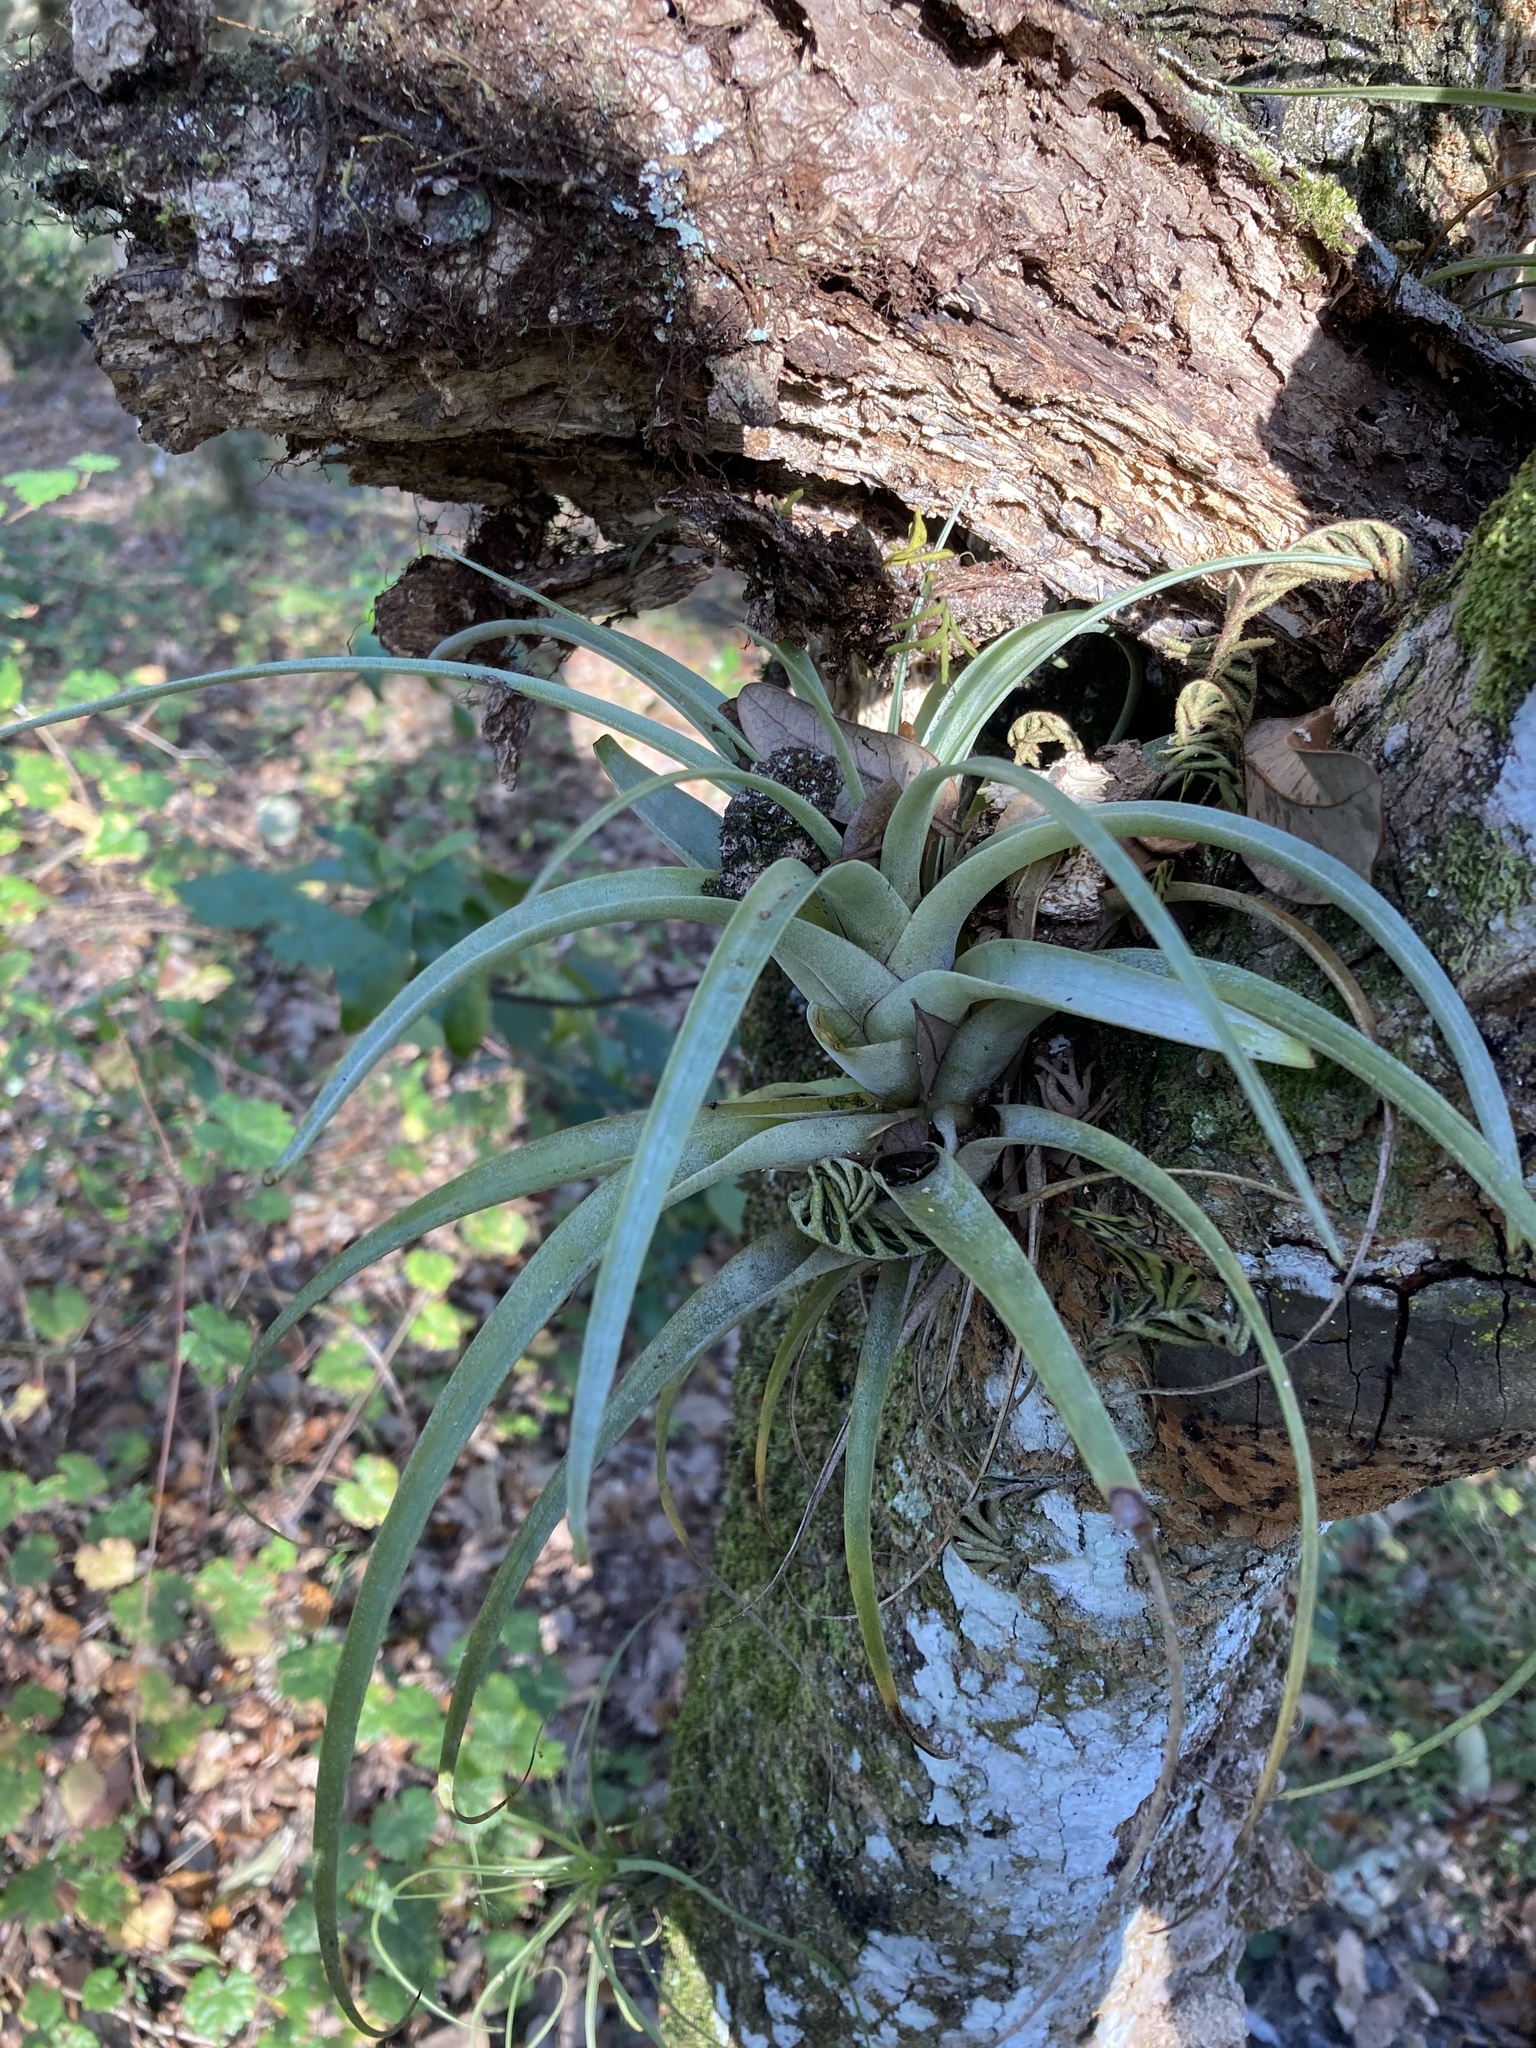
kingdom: Plantae
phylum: Tracheophyta
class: Liliopsida
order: Poales
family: Bromeliaceae
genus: Tillandsia
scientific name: Tillandsia utriculata
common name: Wild pine
